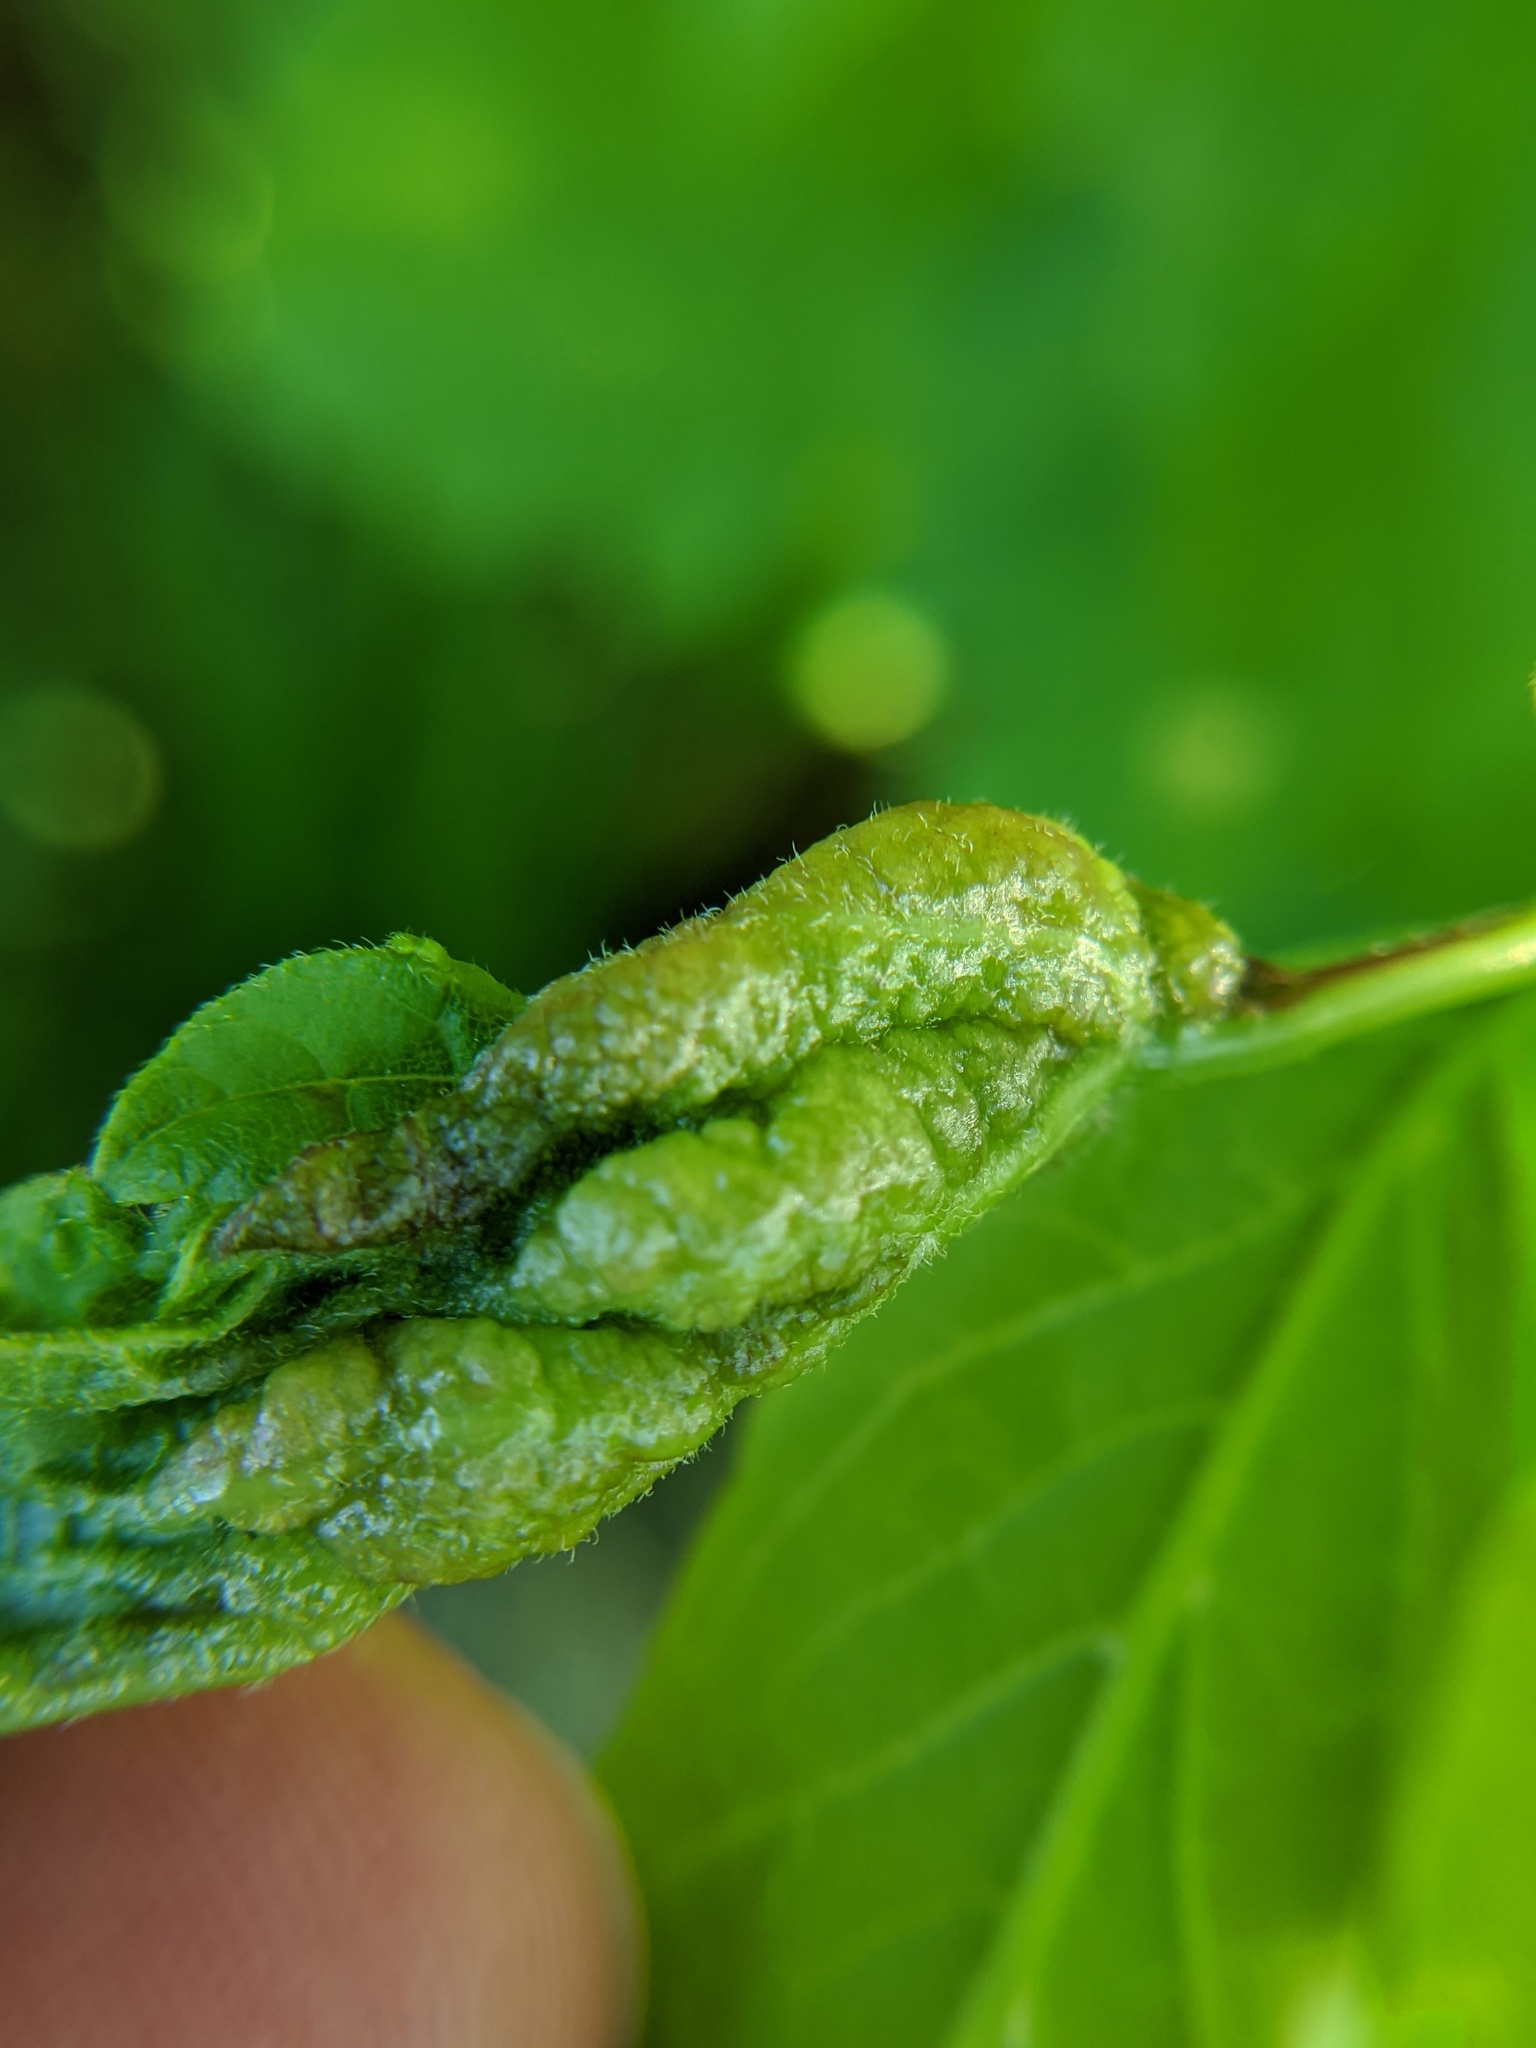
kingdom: Animalia
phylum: Arthropoda
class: Insecta
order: Diptera
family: Cecidomyiidae
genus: Contarinia
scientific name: Contarinia negundinis
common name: Boxelder budgall midge
